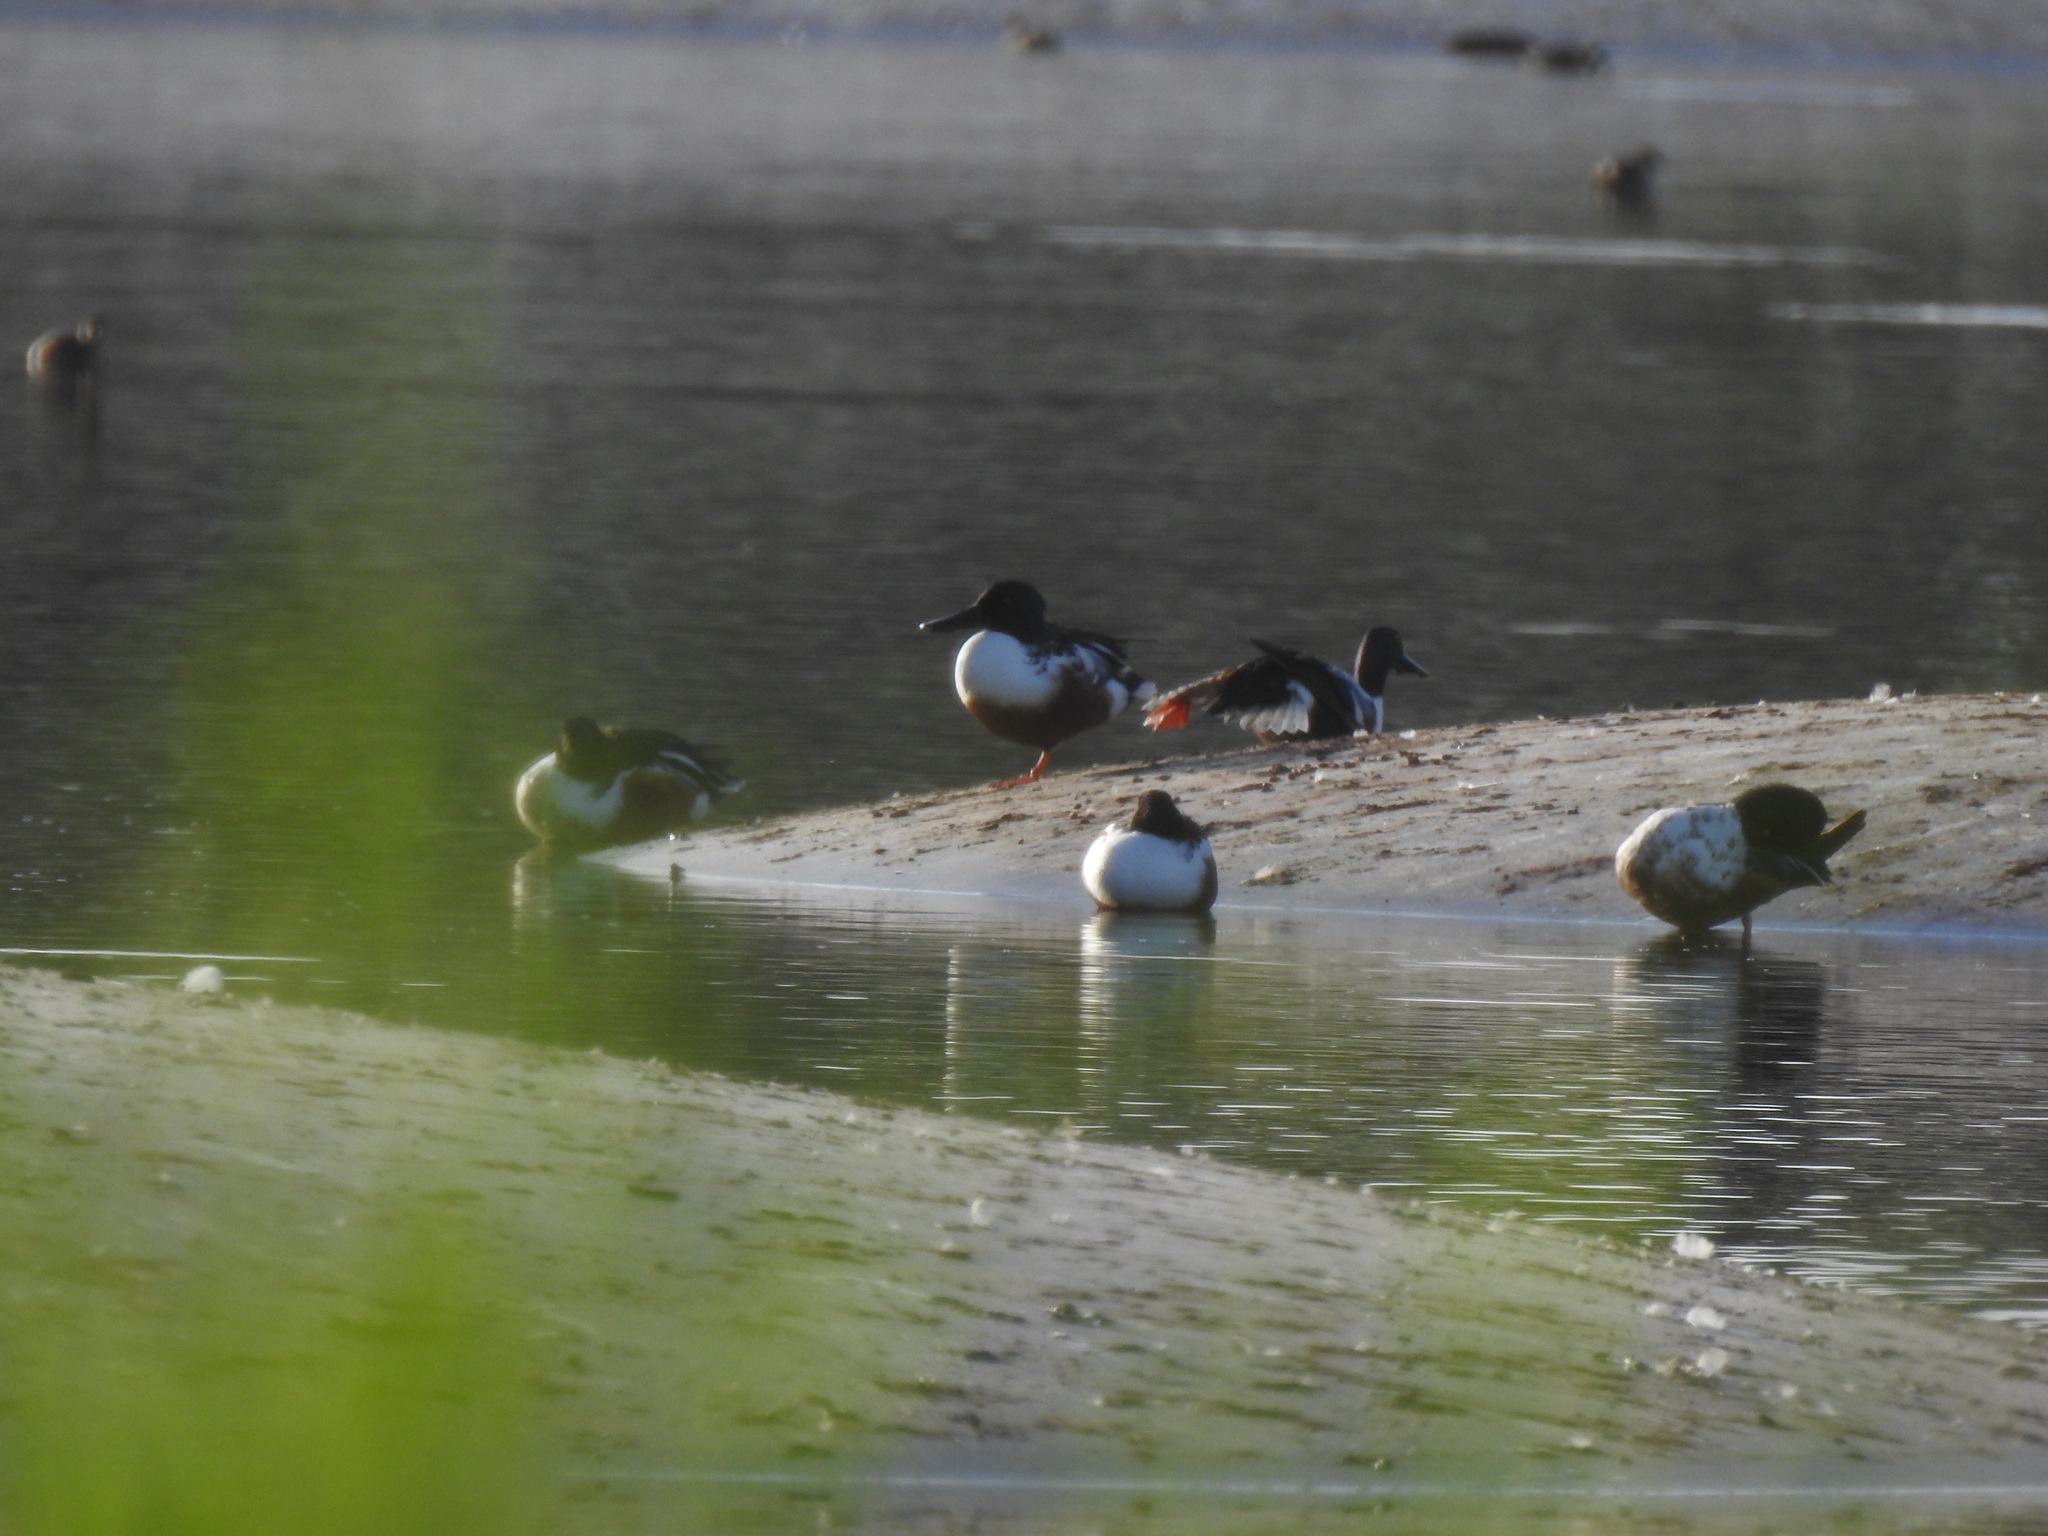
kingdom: Animalia
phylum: Chordata
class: Aves
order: Anseriformes
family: Anatidae
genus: Spatula
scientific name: Spatula clypeata
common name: Northern shoveler
